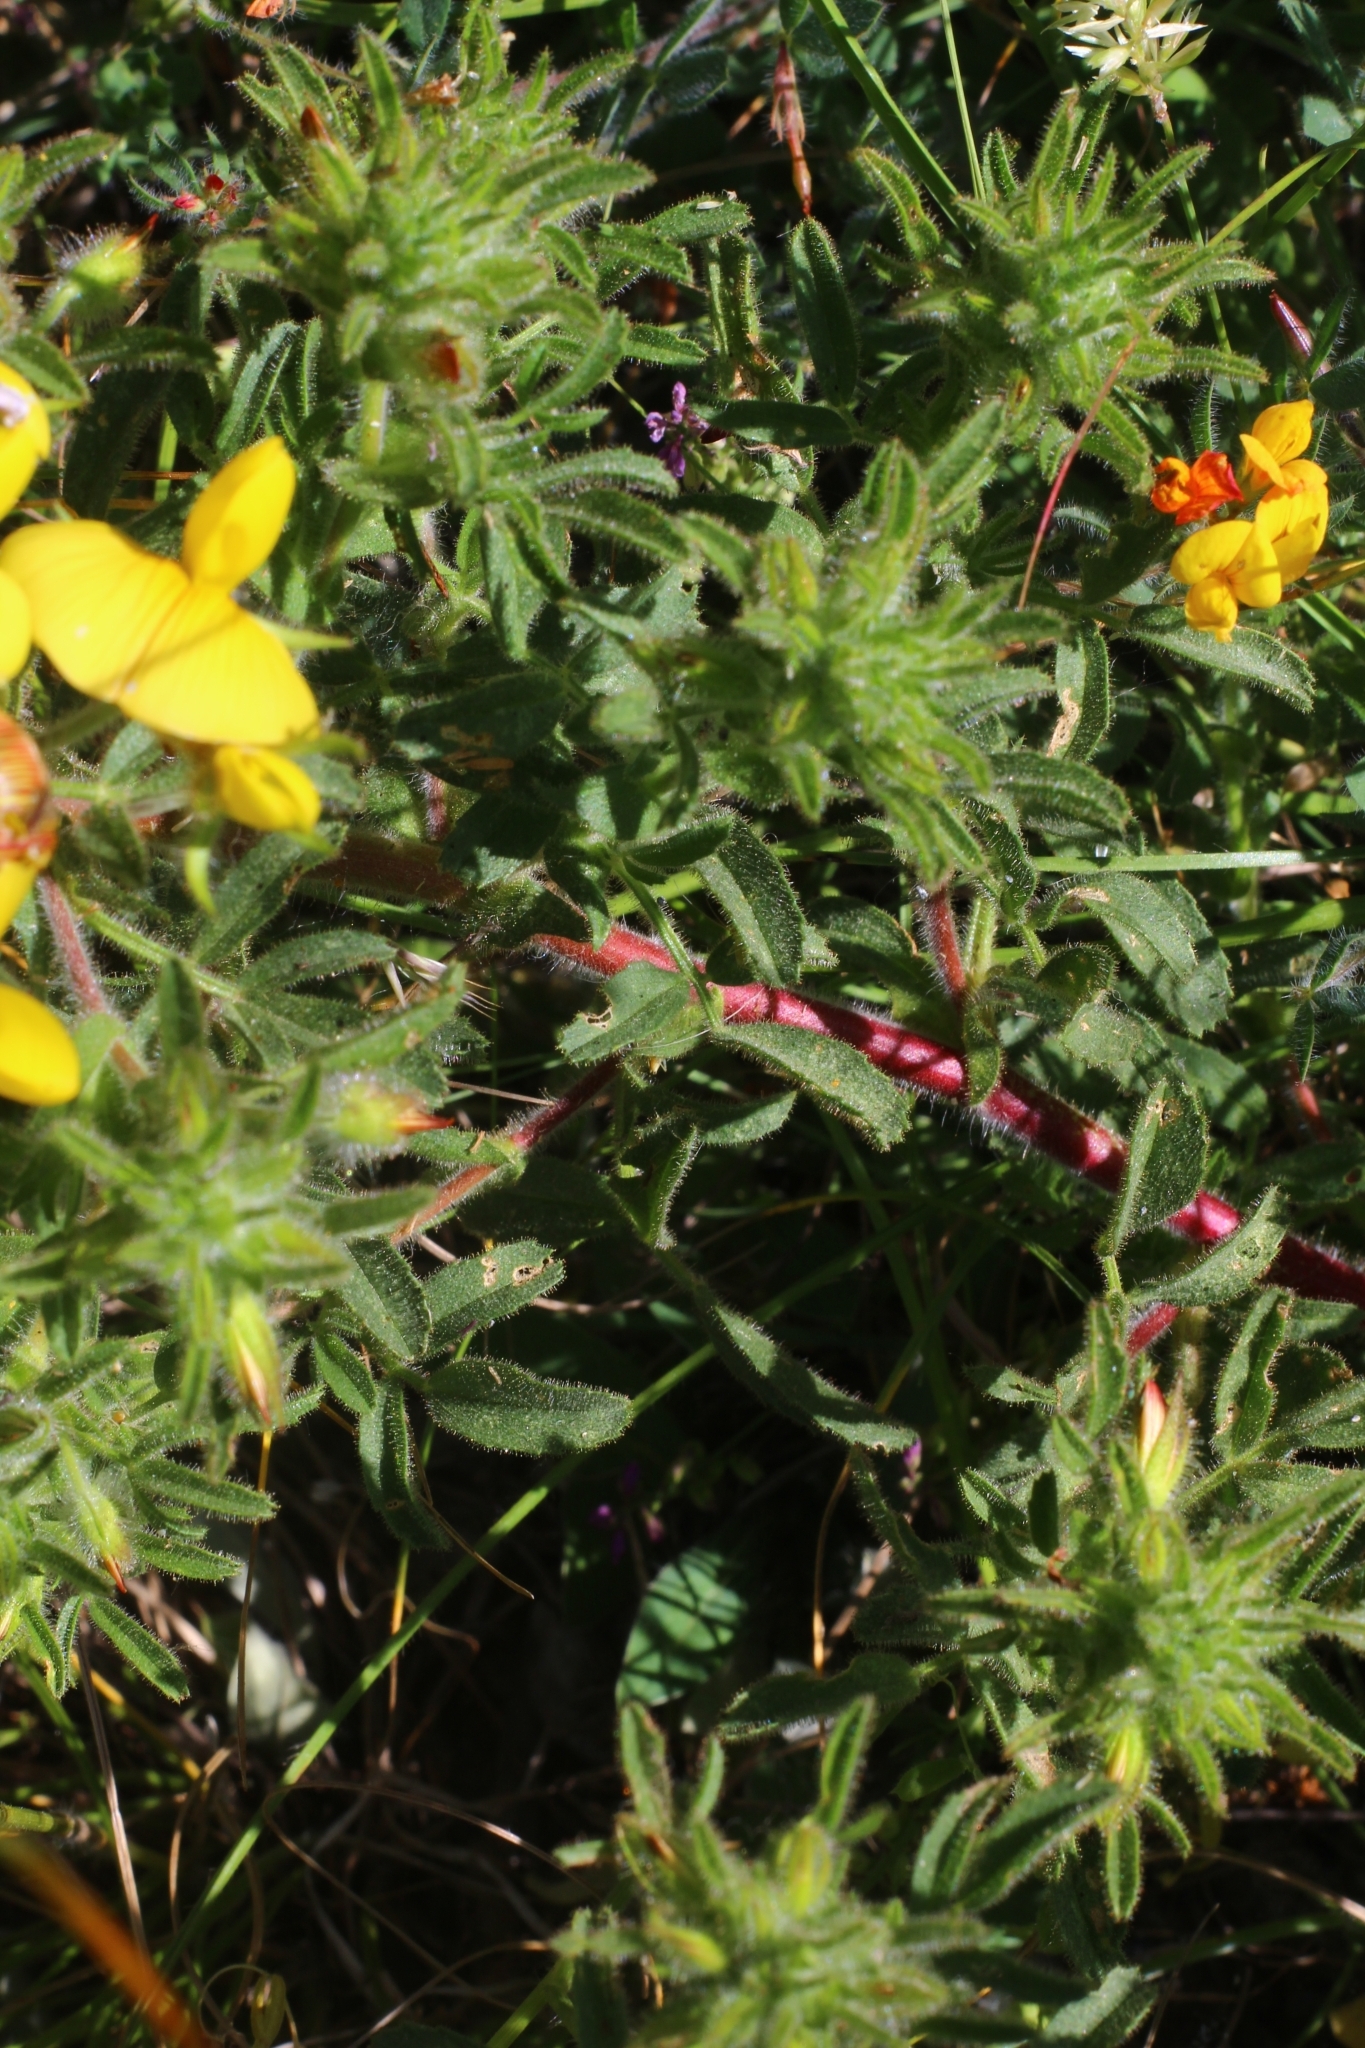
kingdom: Plantae
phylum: Tracheophyta
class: Magnoliopsida
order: Fabales
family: Fabaceae
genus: Ononis
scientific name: Ononis natrix
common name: Yellow restharrow
